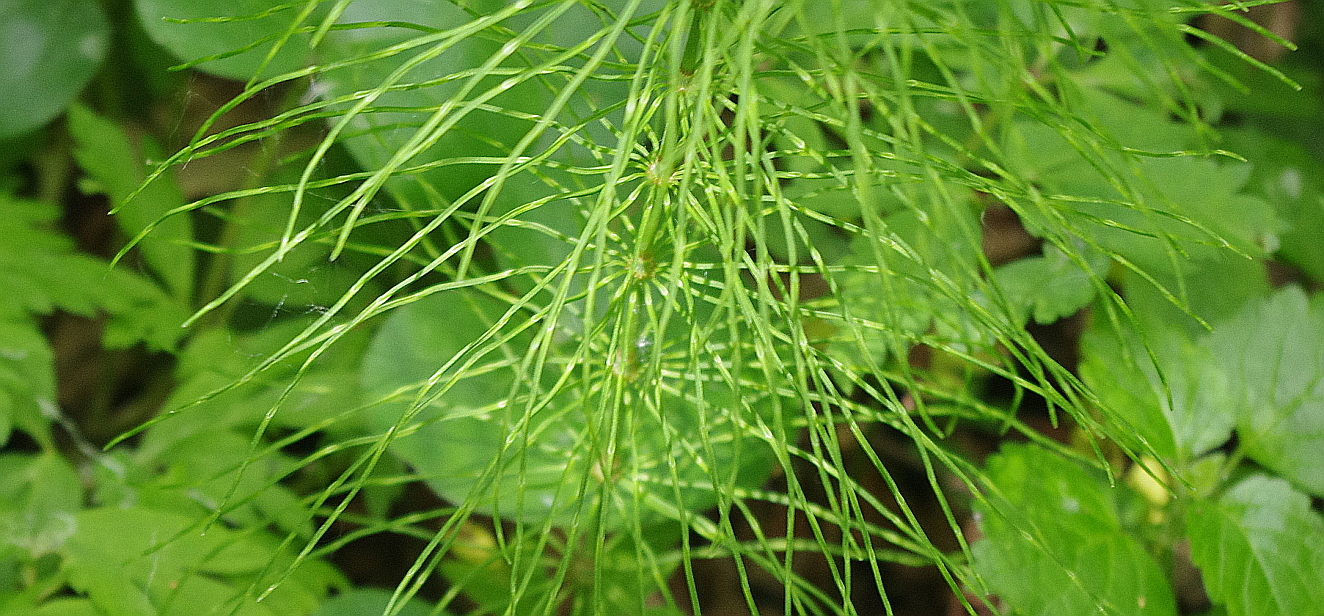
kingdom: Plantae
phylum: Tracheophyta
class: Polypodiopsida
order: Equisetales
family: Equisetaceae
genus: Equisetum
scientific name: Equisetum pratense
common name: Meadow horsetail
